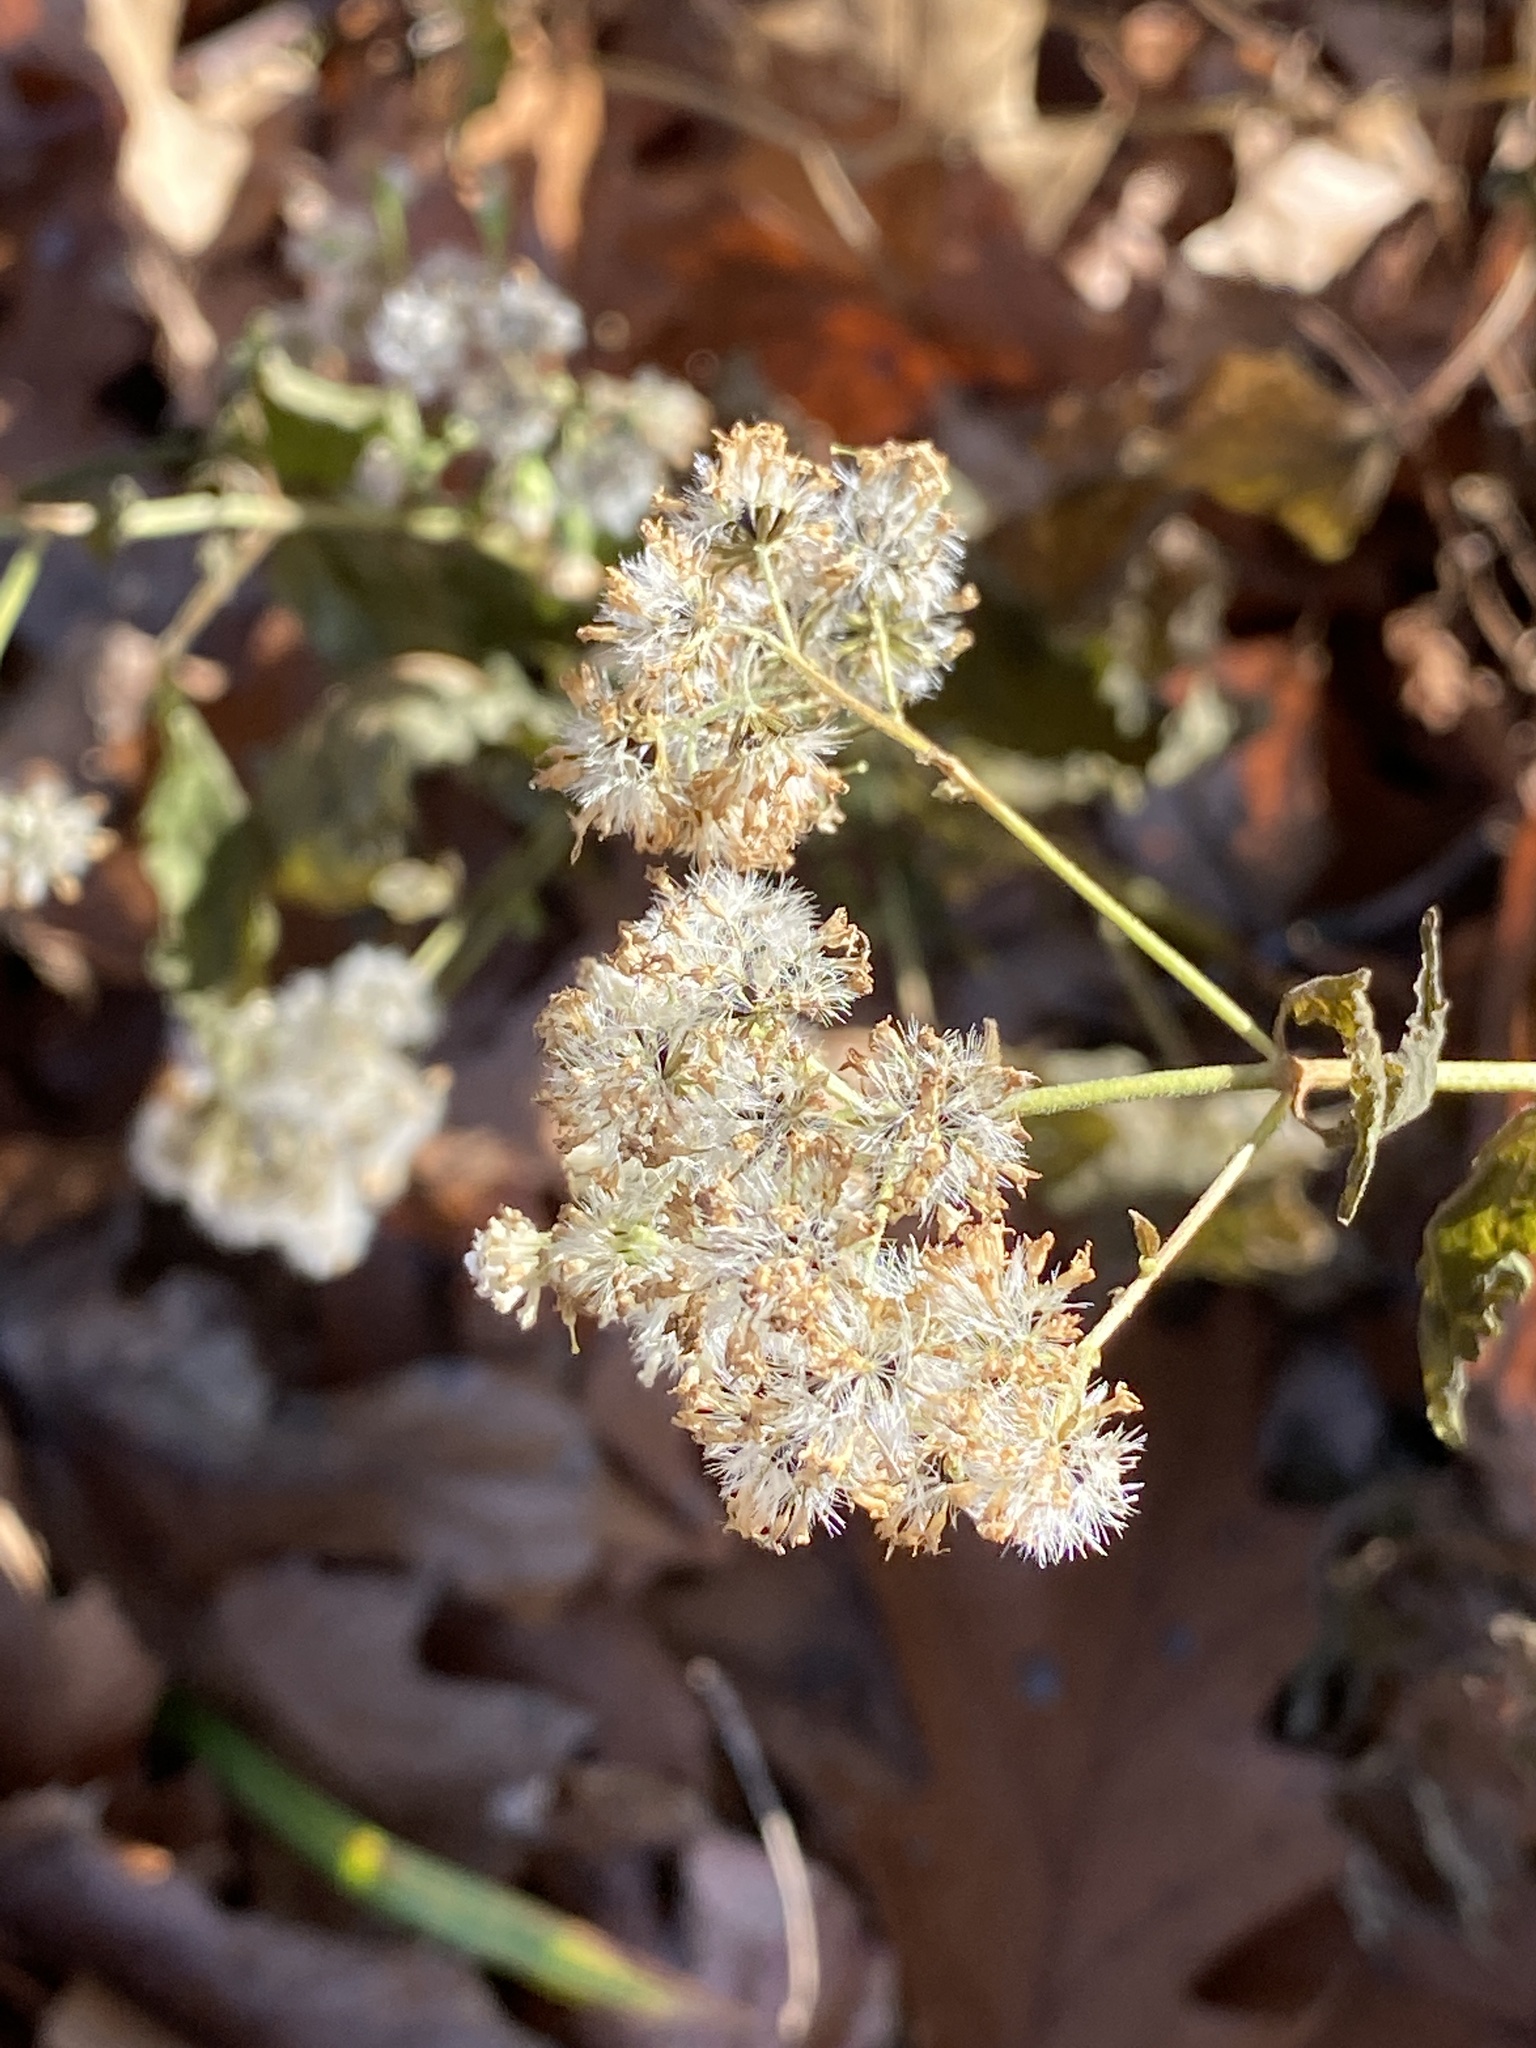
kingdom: Plantae
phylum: Tracheophyta
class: Magnoliopsida
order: Asterales
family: Asteraceae
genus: Ageratina
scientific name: Ageratina altissima
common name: White snakeroot
